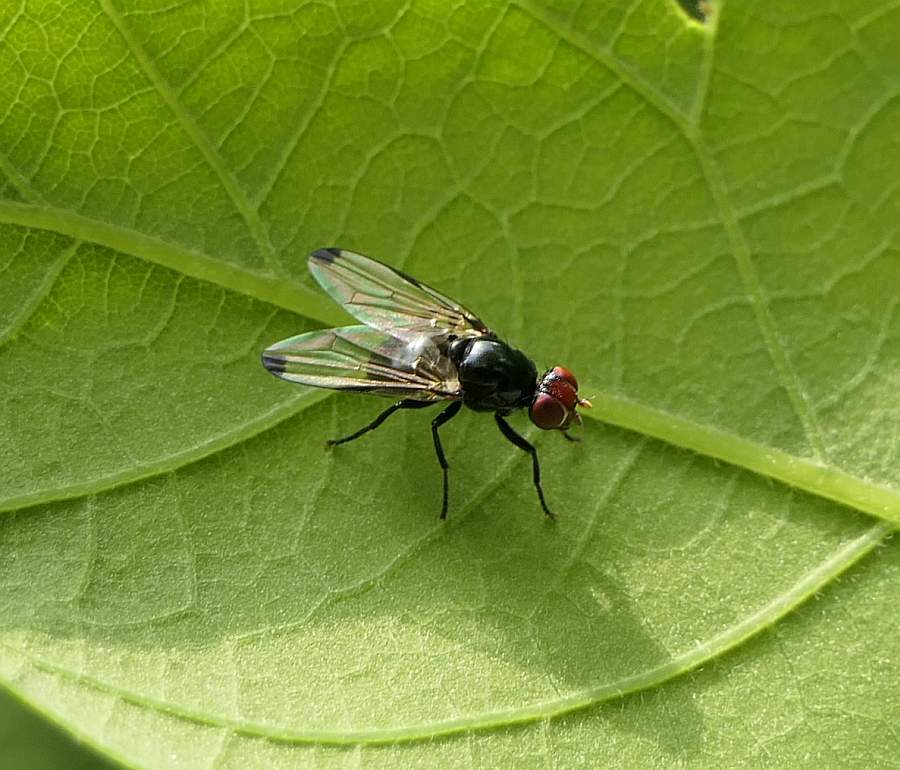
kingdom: Animalia
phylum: Arthropoda
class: Insecta
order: Diptera
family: Ulidiidae
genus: Seioptera
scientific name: Seioptera vibrans
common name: Dark-tipped wingwaver
